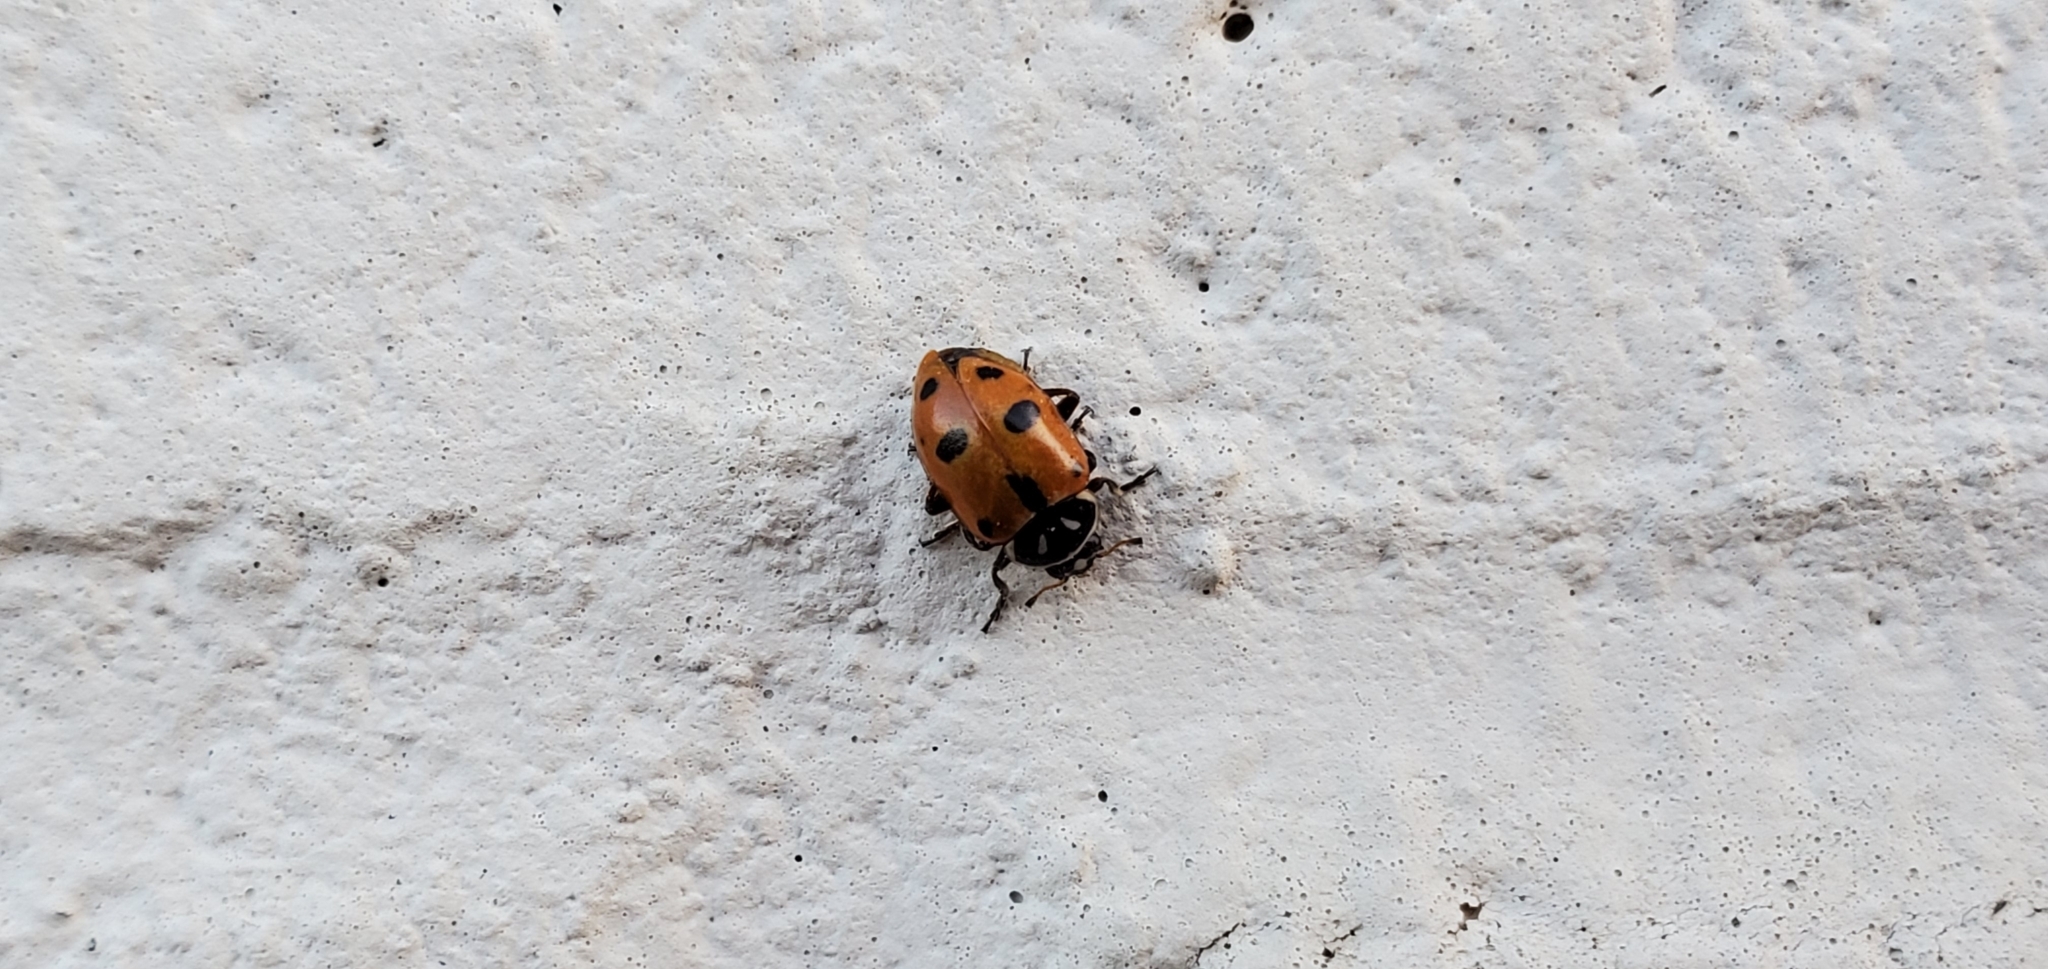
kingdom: Animalia
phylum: Arthropoda
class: Insecta
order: Coleoptera
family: Coccinellidae
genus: Hippodamia
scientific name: Hippodamia sinuata
